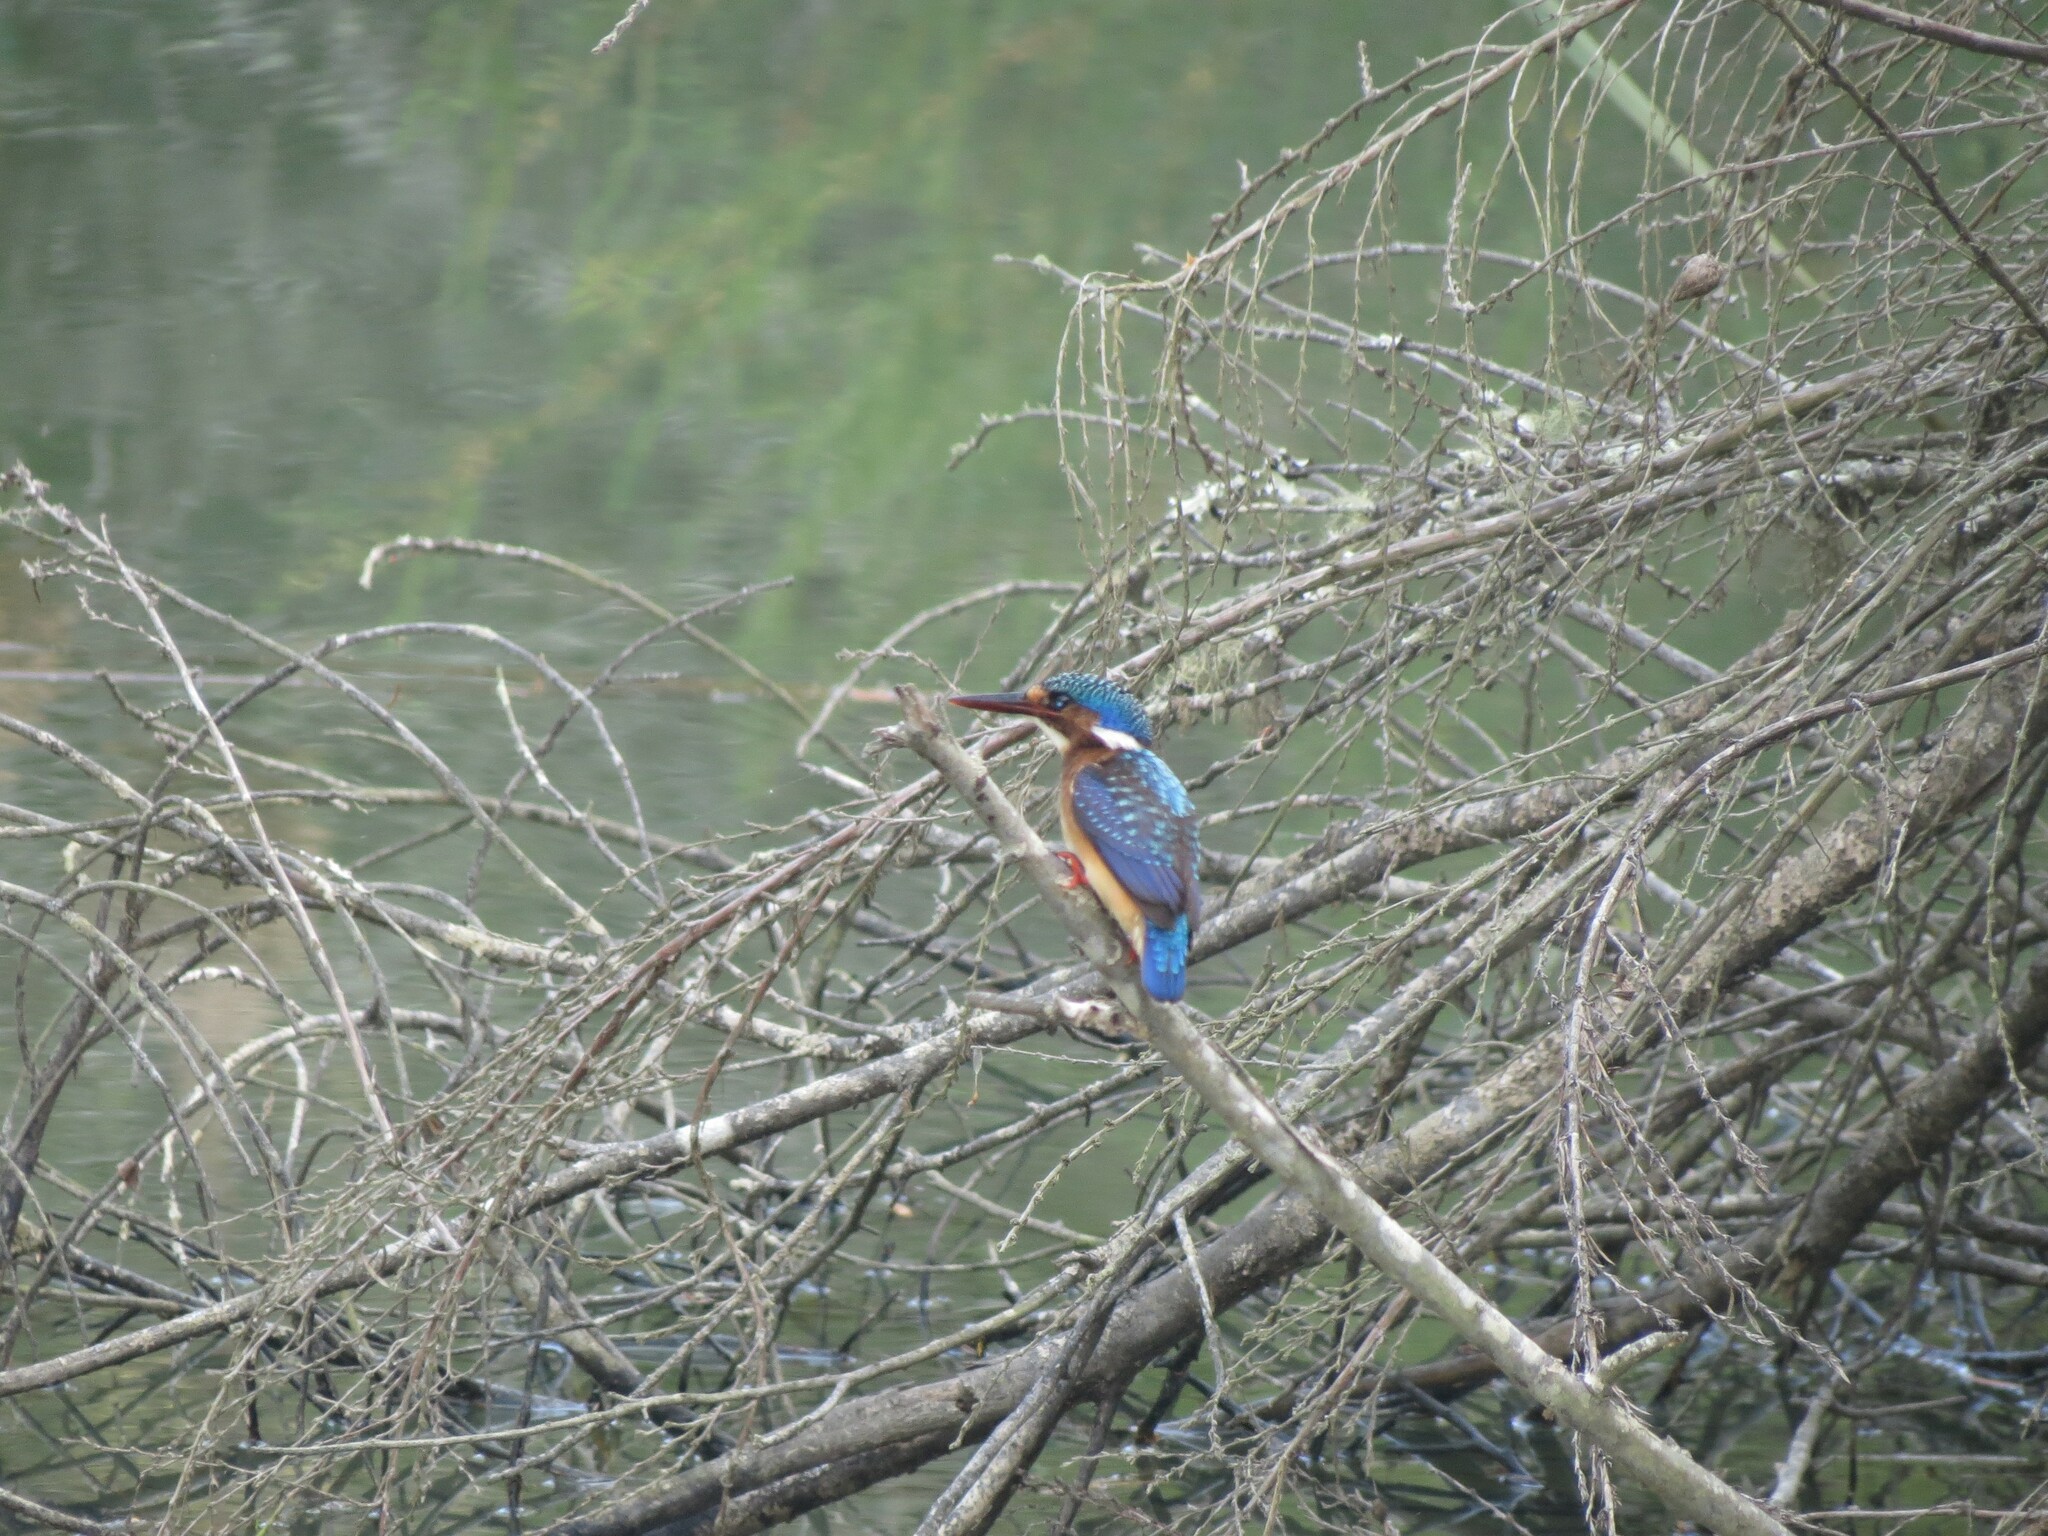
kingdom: Animalia
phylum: Chordata
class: Aves
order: Coraciiformes
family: Alcedinidae
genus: Corythornis
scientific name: Corythornis cristatus
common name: Malachite kingfisher
